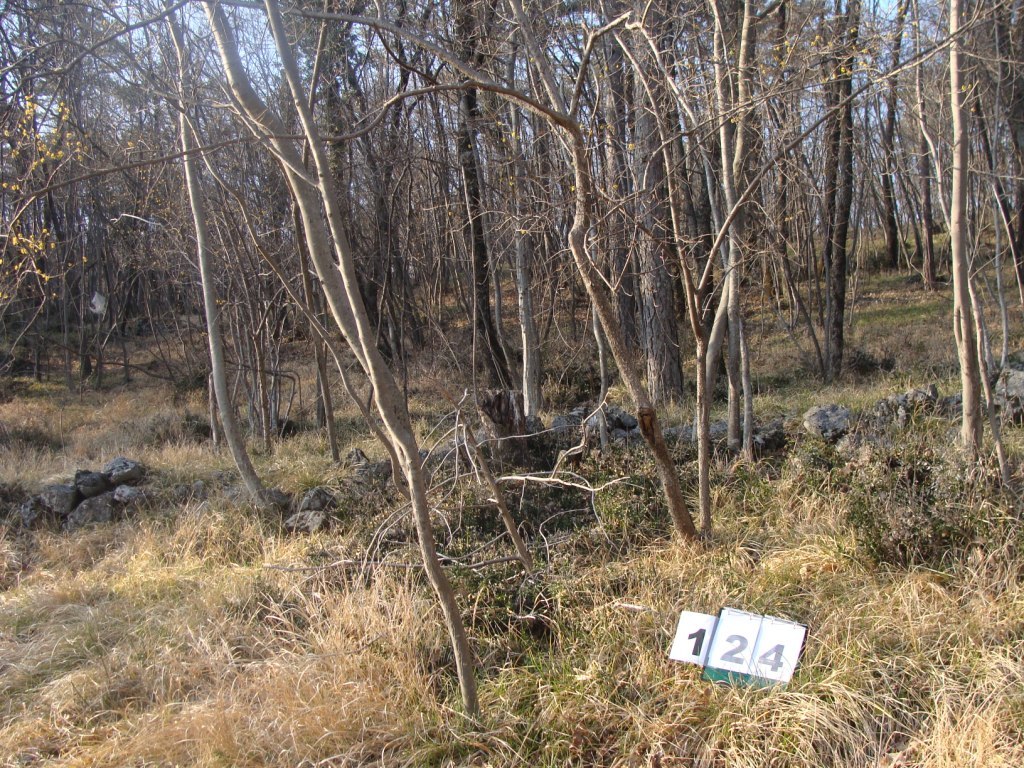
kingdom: Plantae
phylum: Tracheophyta
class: Magnoliopsida
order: Cornales
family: Cornaceae
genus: Cornus
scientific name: Cornus mas
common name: Cornelian-cherry
